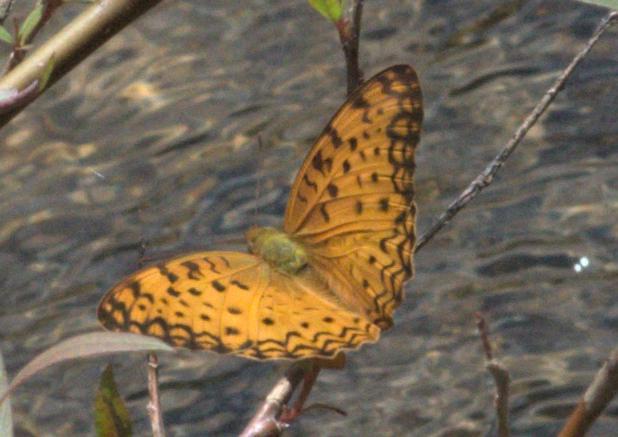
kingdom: Animalia
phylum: Arthropoda
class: Insecta
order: Lepidoptera
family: Nymphalidae
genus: Phalanta
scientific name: Phalanta phalantha
